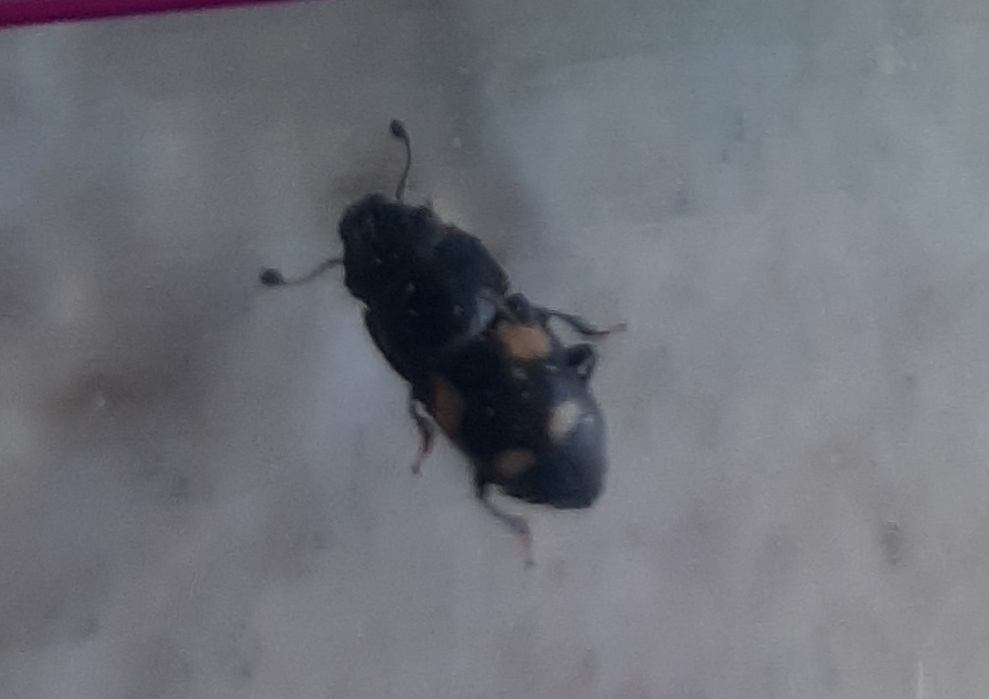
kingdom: Animalia
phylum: Arthropoda
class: Insecta
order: Coleoptera
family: Nitidulidae
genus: Glischrochilus
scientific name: Glischrochilus quadrisignatus
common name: Picnic beetle
